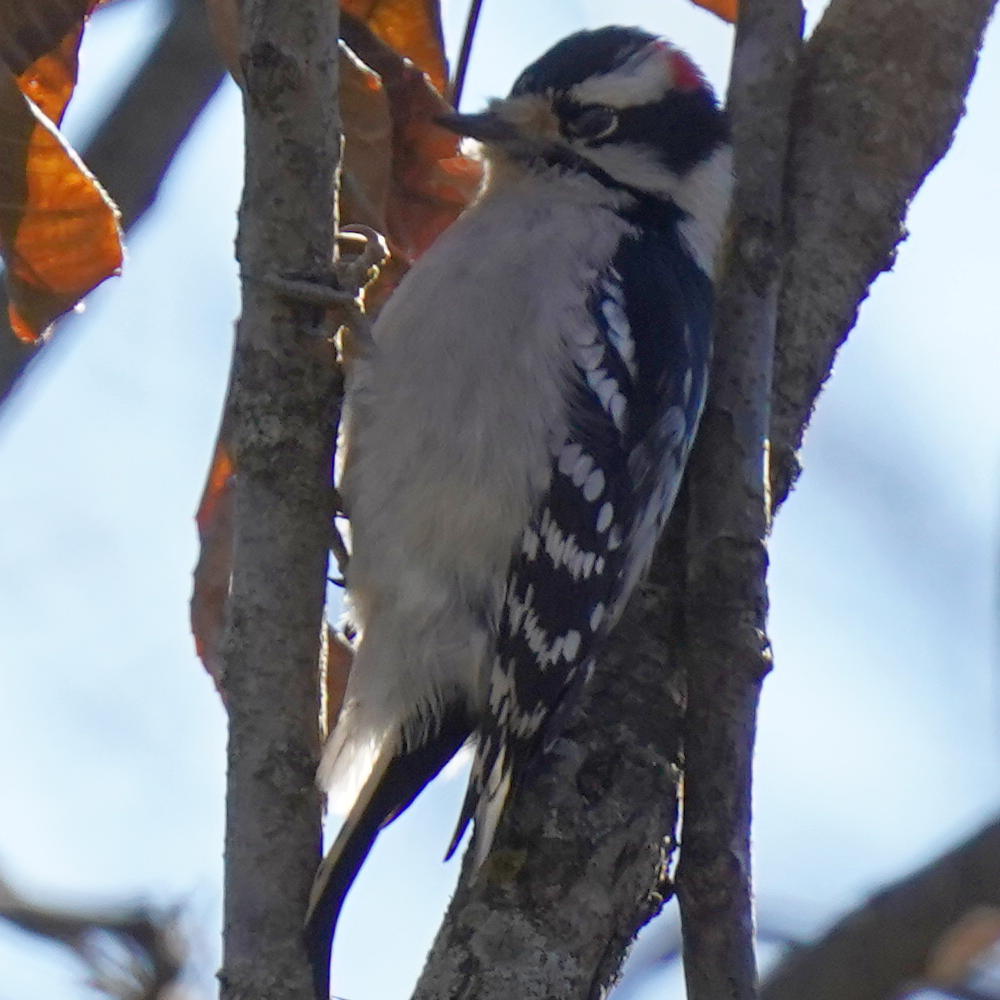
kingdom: Animalia
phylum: Chordata
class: Aves
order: Piciformes
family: Picidae
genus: Dryobates
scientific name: Dryobates pubescens
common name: Downy woodpecker
